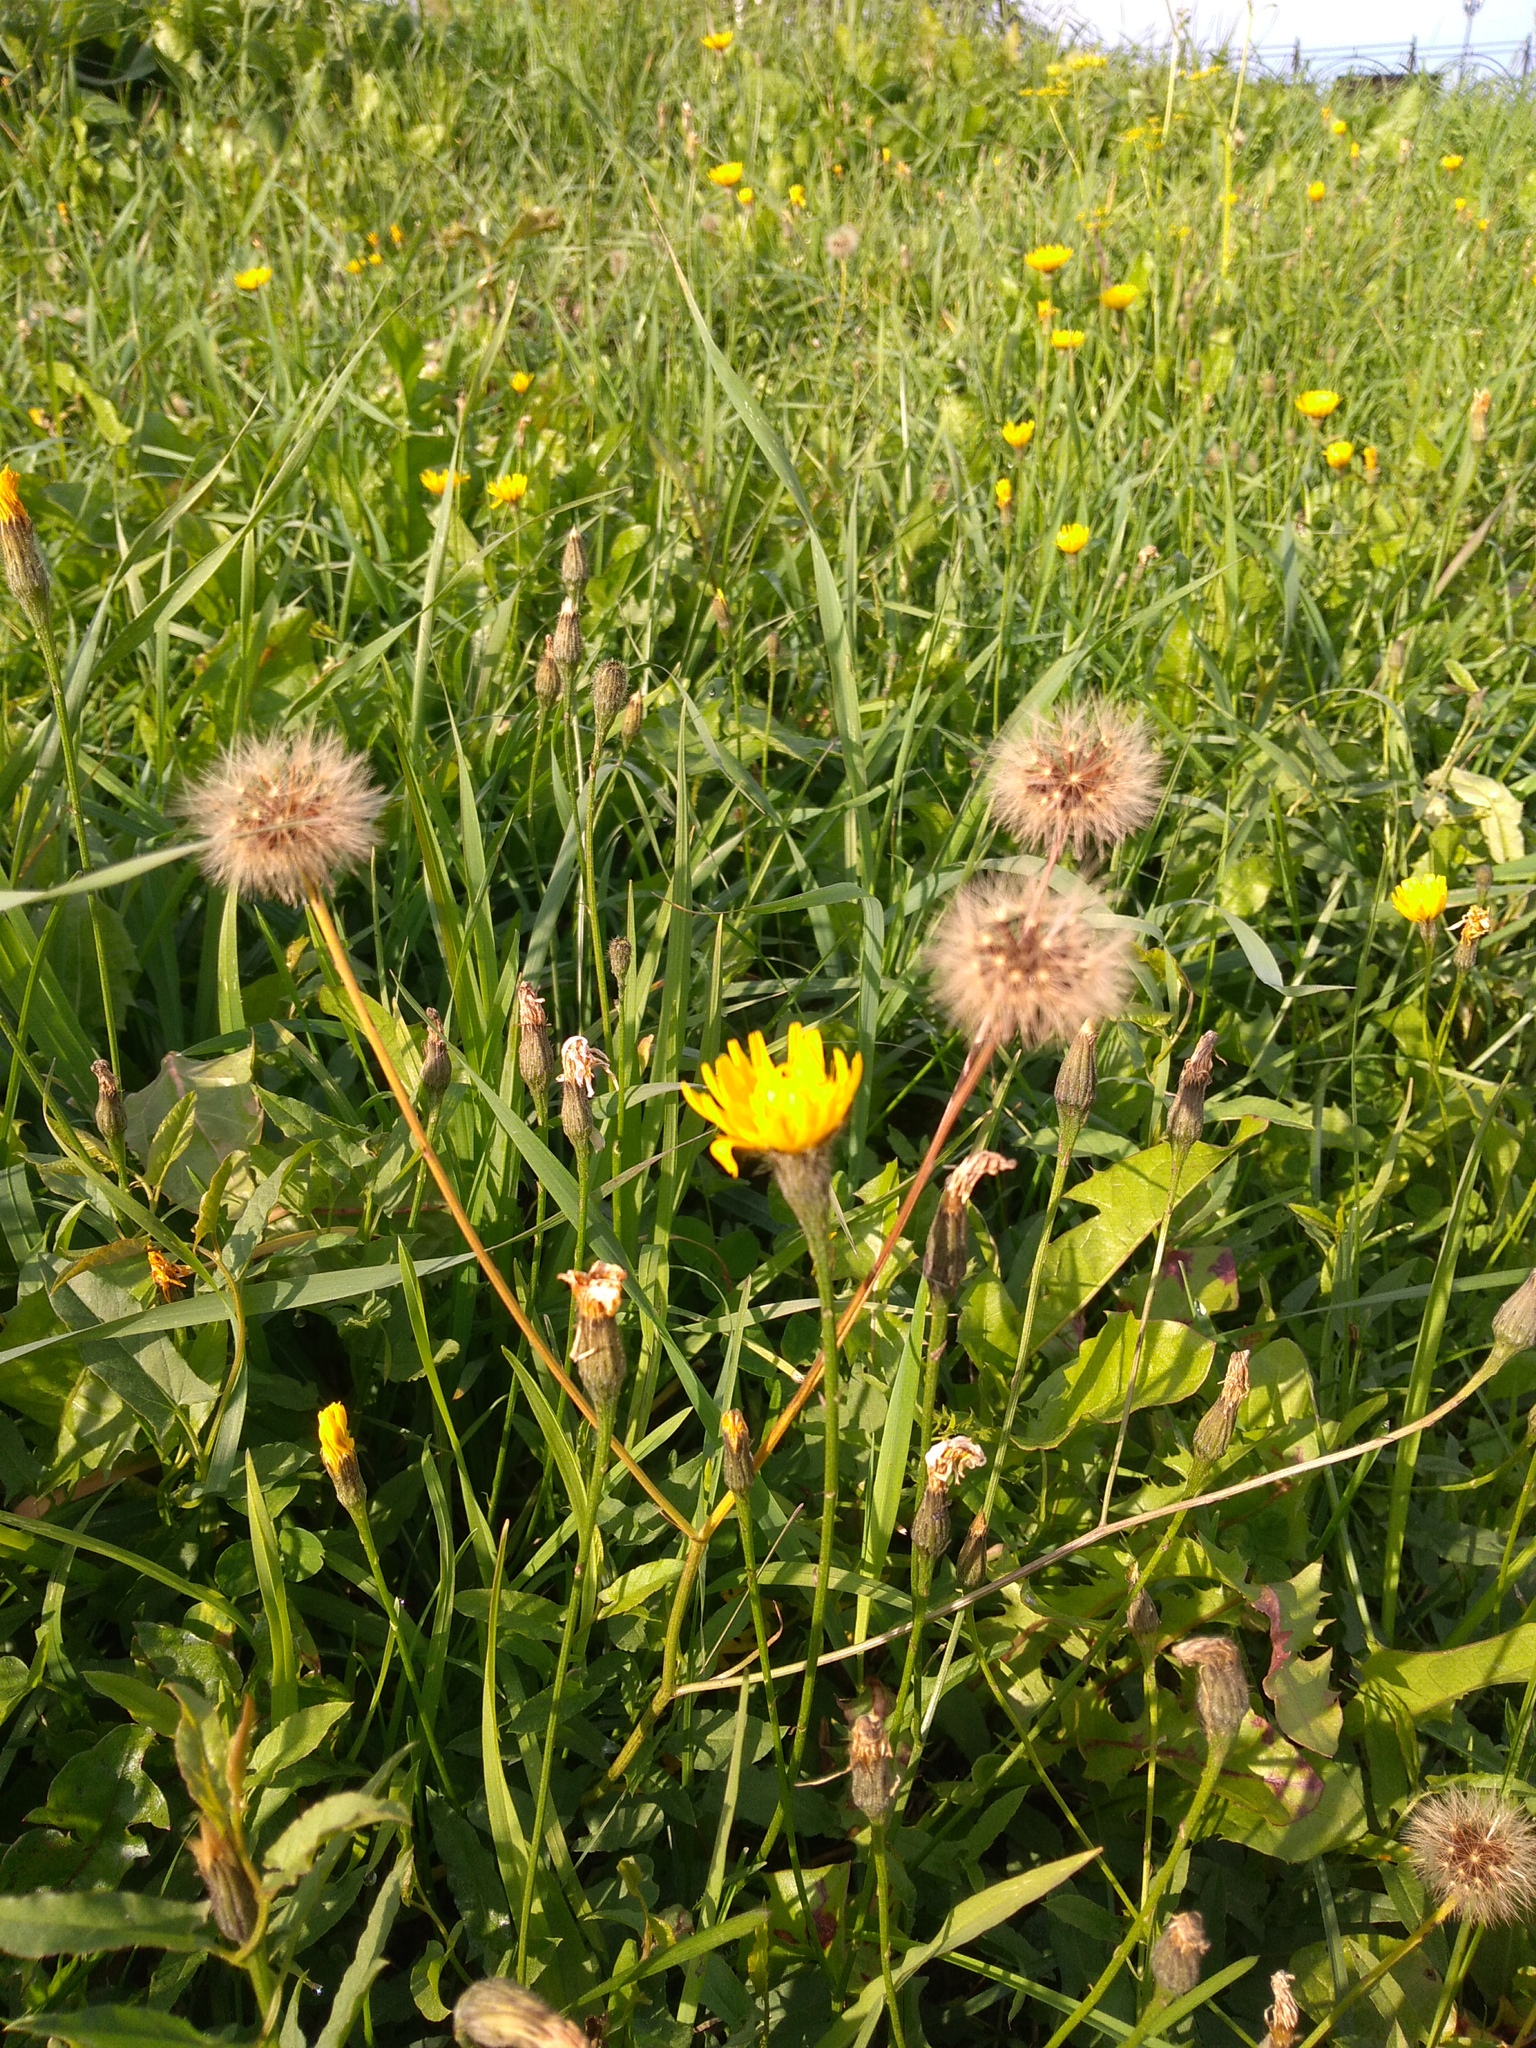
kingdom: Plantae
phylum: Tracheophyta
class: Magnoliopsida
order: Asterales
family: Asteraceae
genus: Scorzoneroides
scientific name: Scorzoneroides autumnalis
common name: Autumn hawkbit
